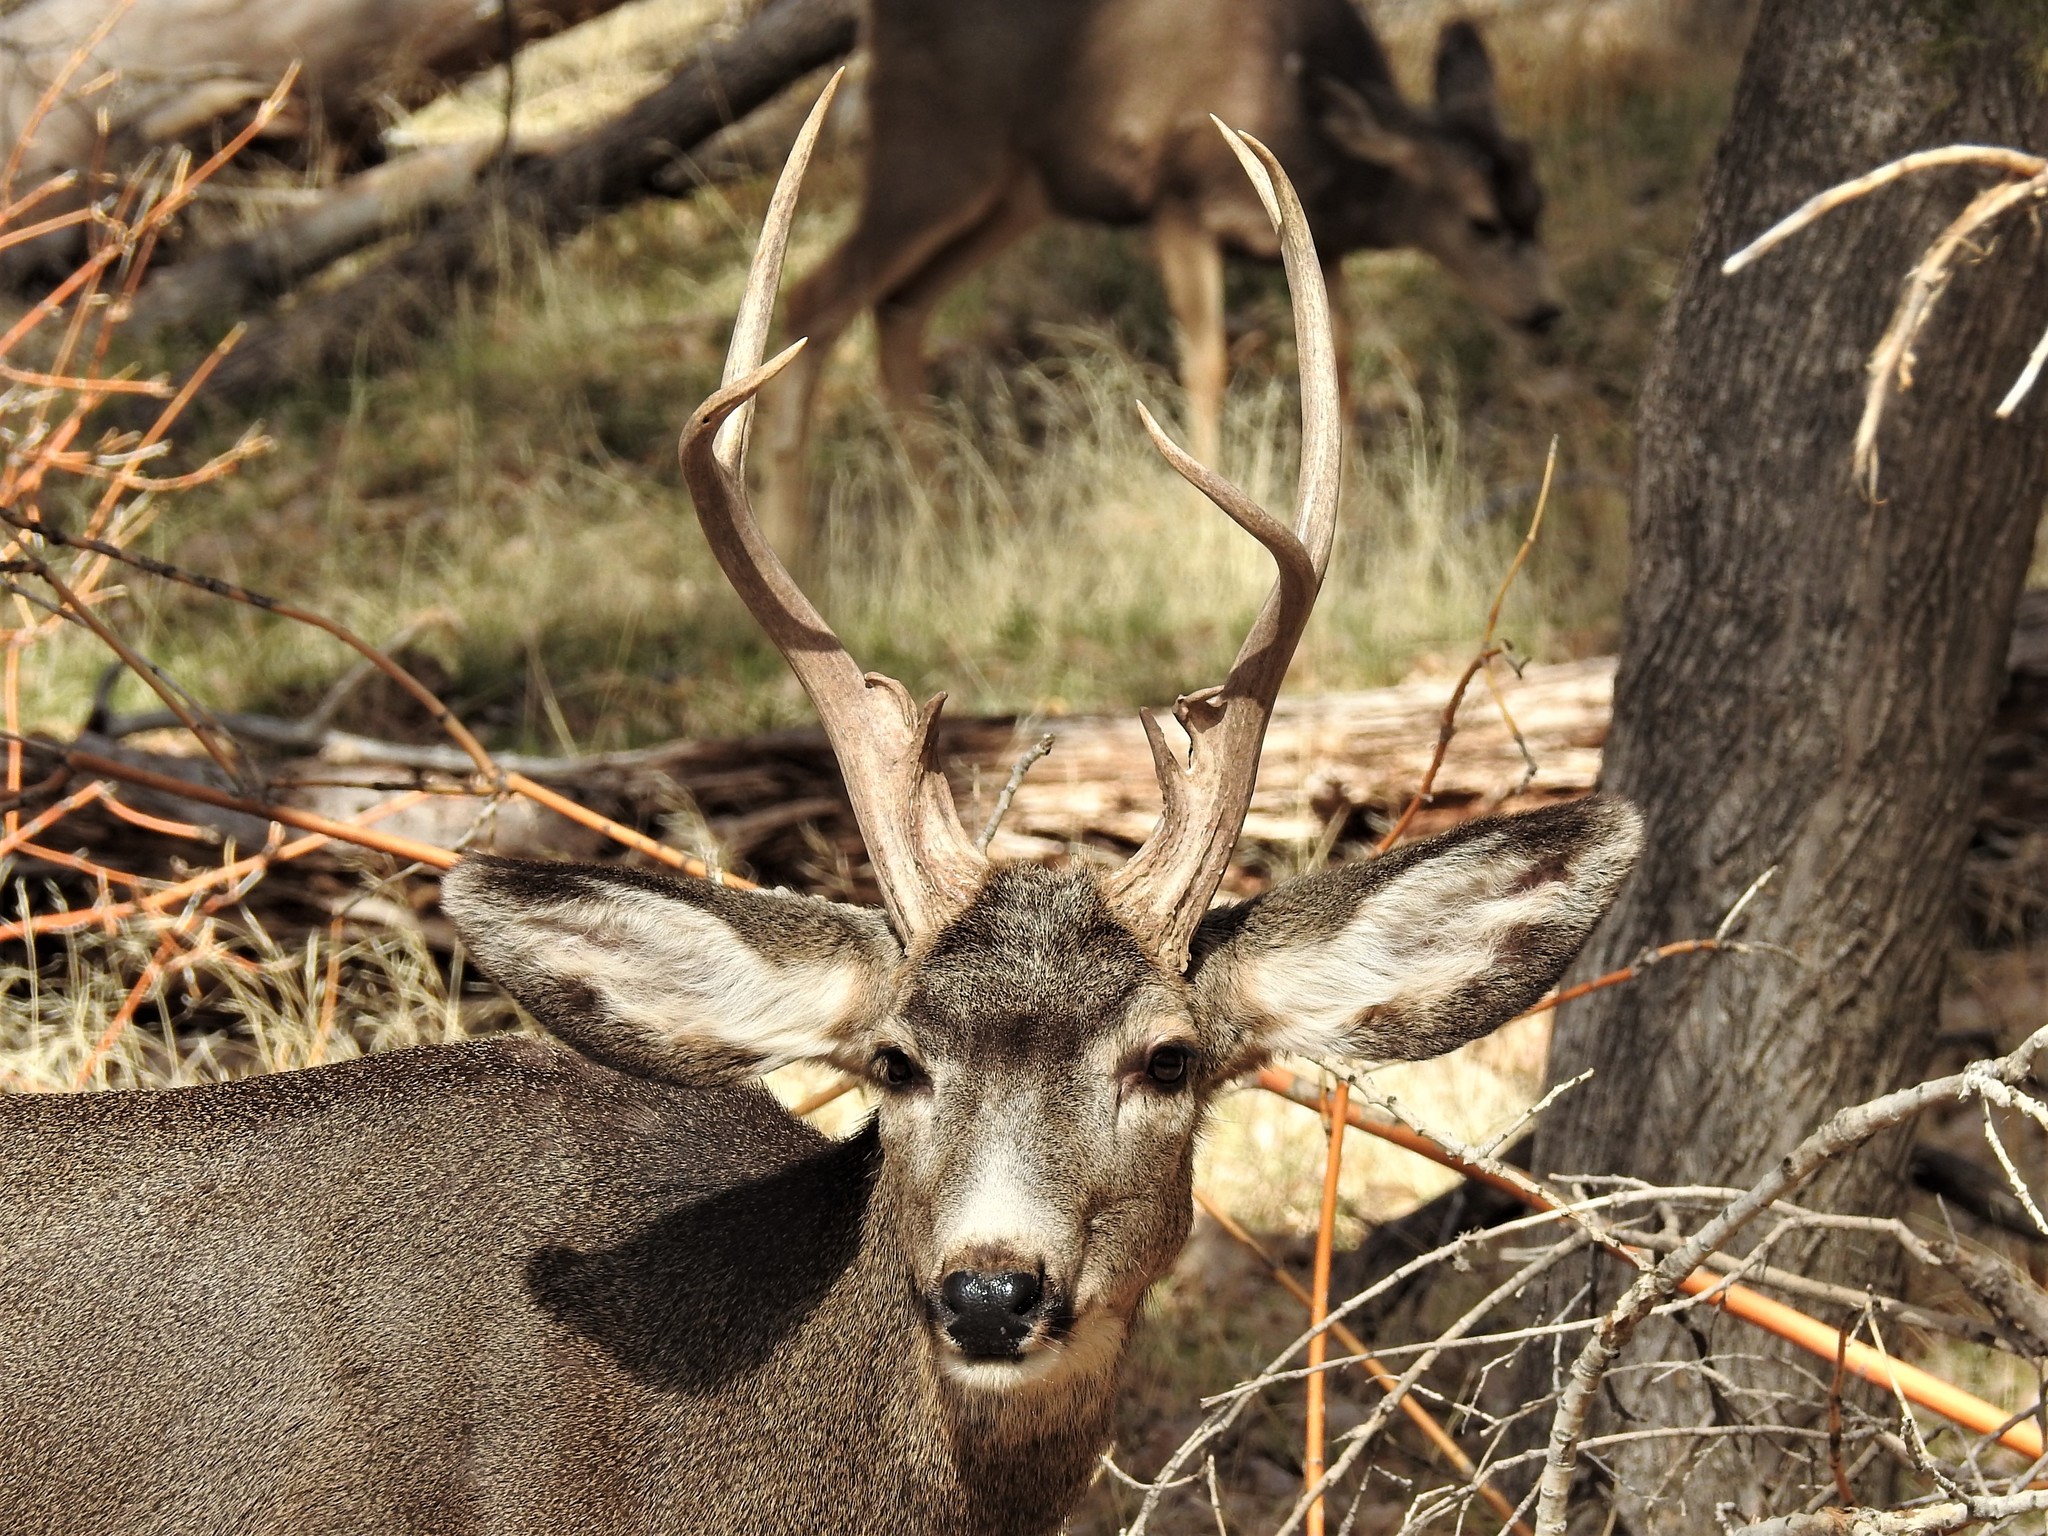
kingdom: Animalia
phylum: Chordata
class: Mammalia
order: Artiodactyla
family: Cervidae
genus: Odocoileus
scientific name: Odocoileus hemionus
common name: Mule deer
